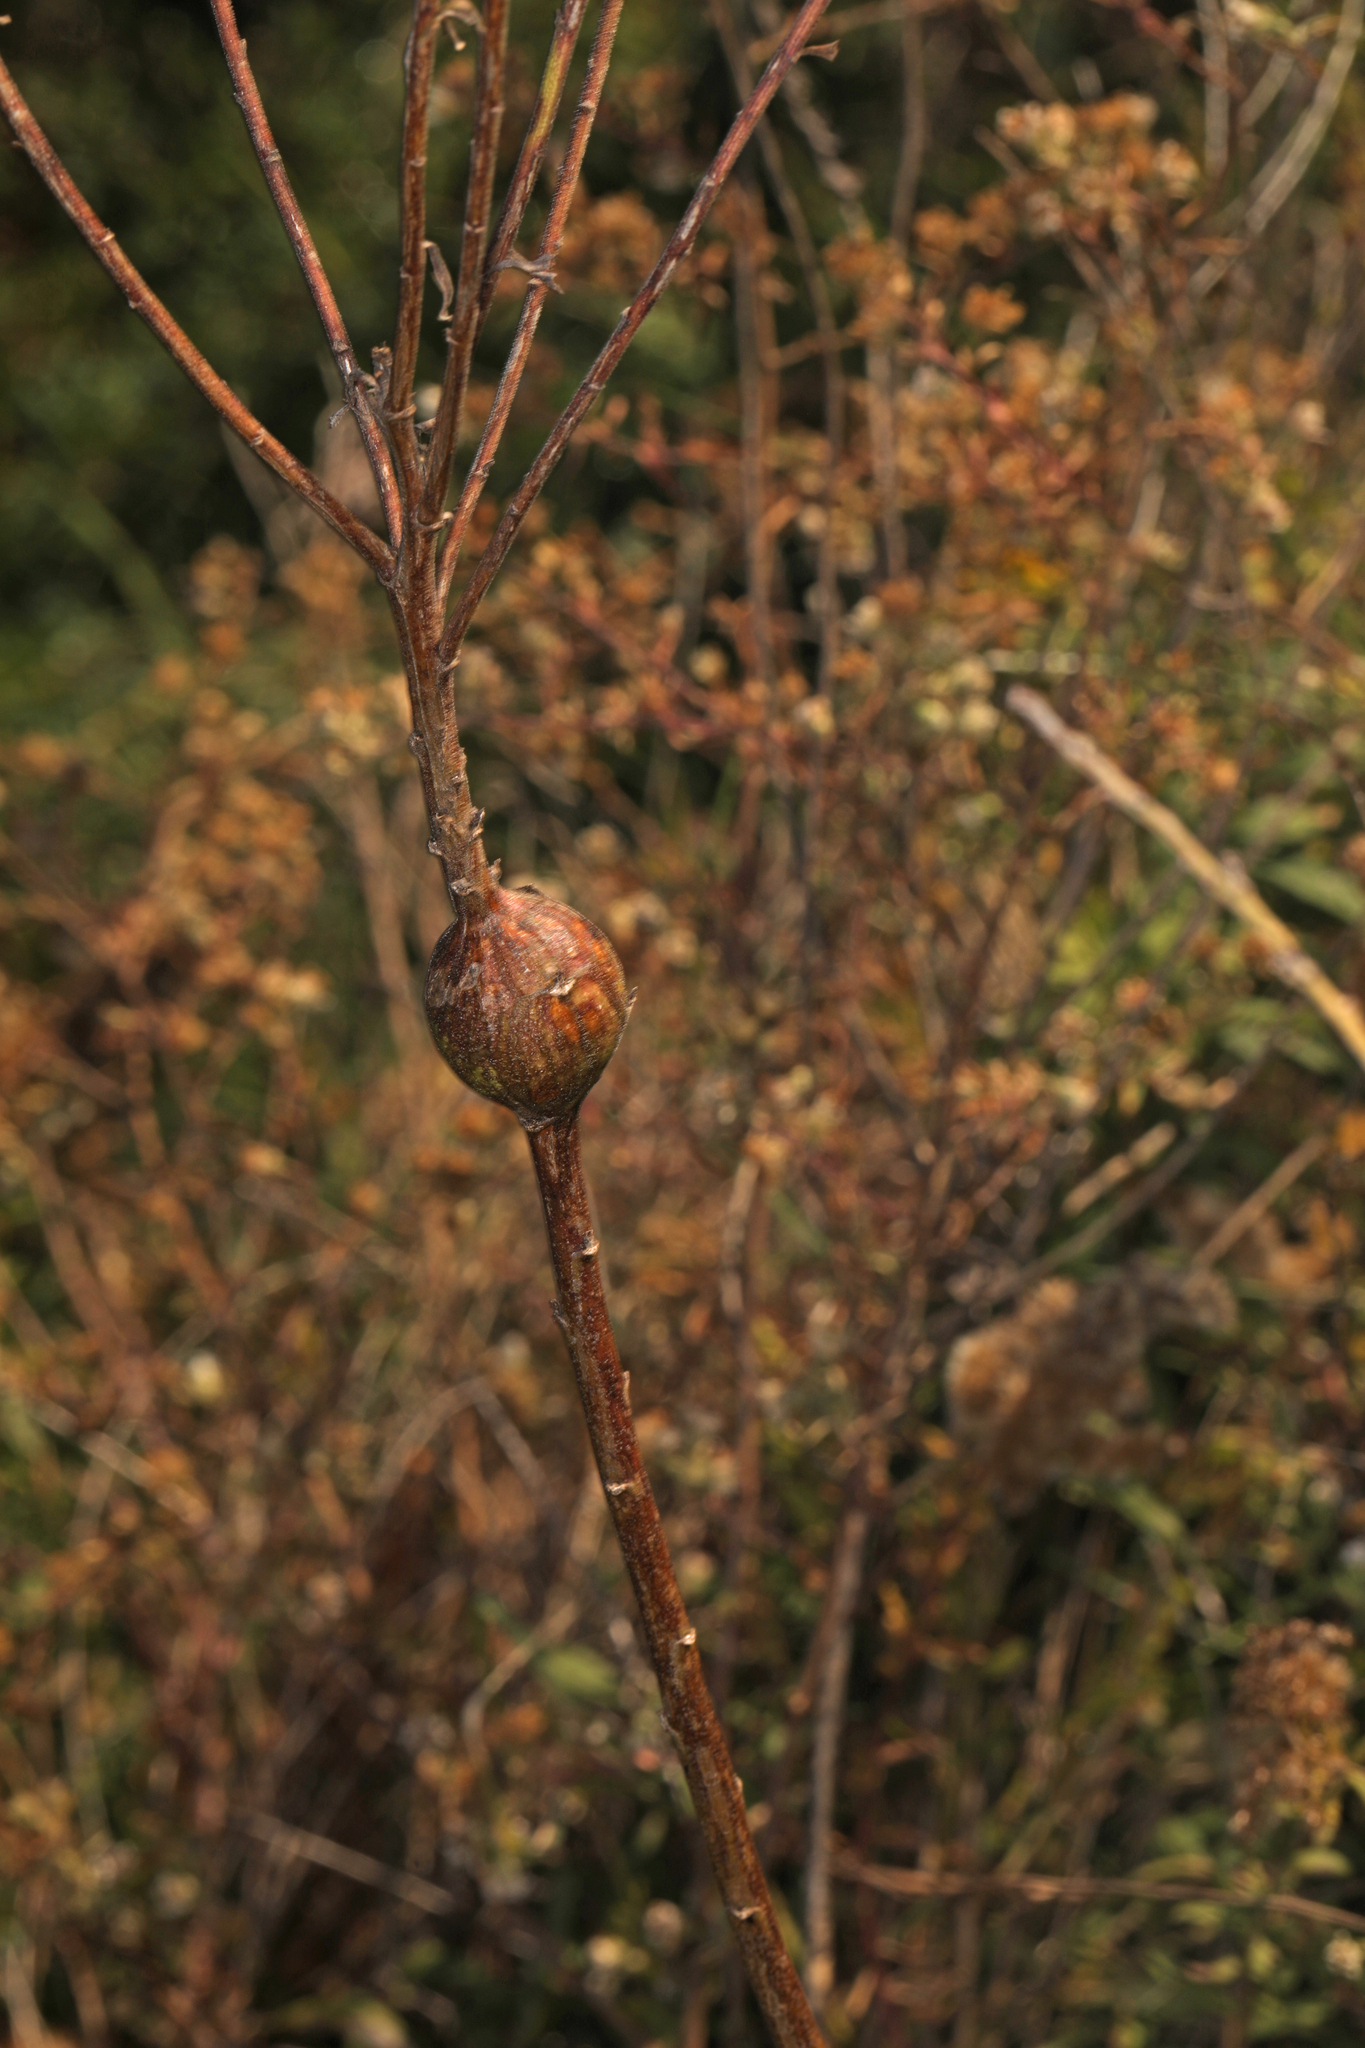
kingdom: Animalia
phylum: Arthropoda
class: Insecta
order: Diptera
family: Tephritidae
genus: Eurosta
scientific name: Eurosta solidaginis
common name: Goldenrod gall fly
